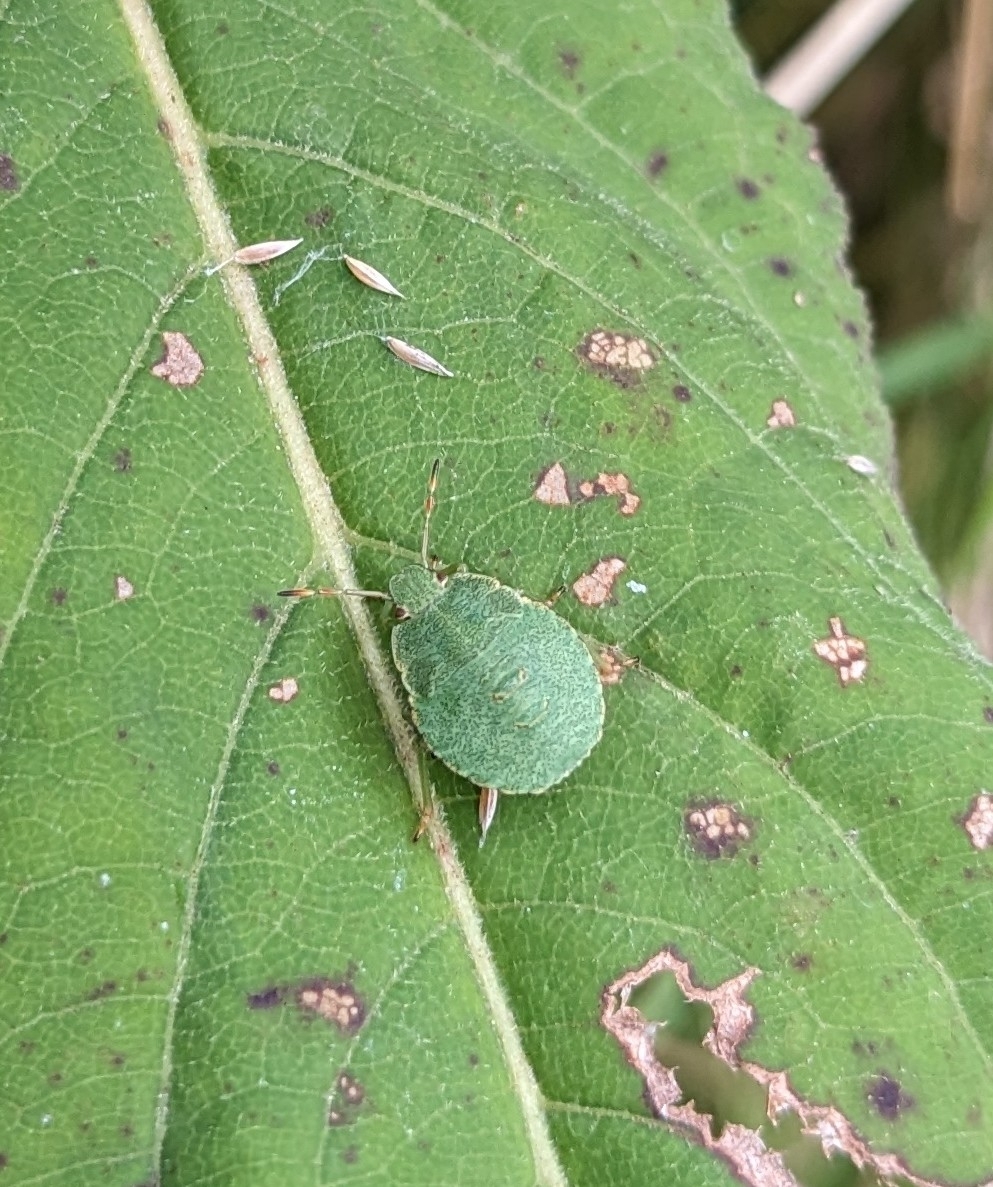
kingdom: Animalia
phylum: Arthropoda
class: Insecta
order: Hemiptera
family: Pentatomidae
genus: Palomena
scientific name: Palomena prasina
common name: Green shieldbug
